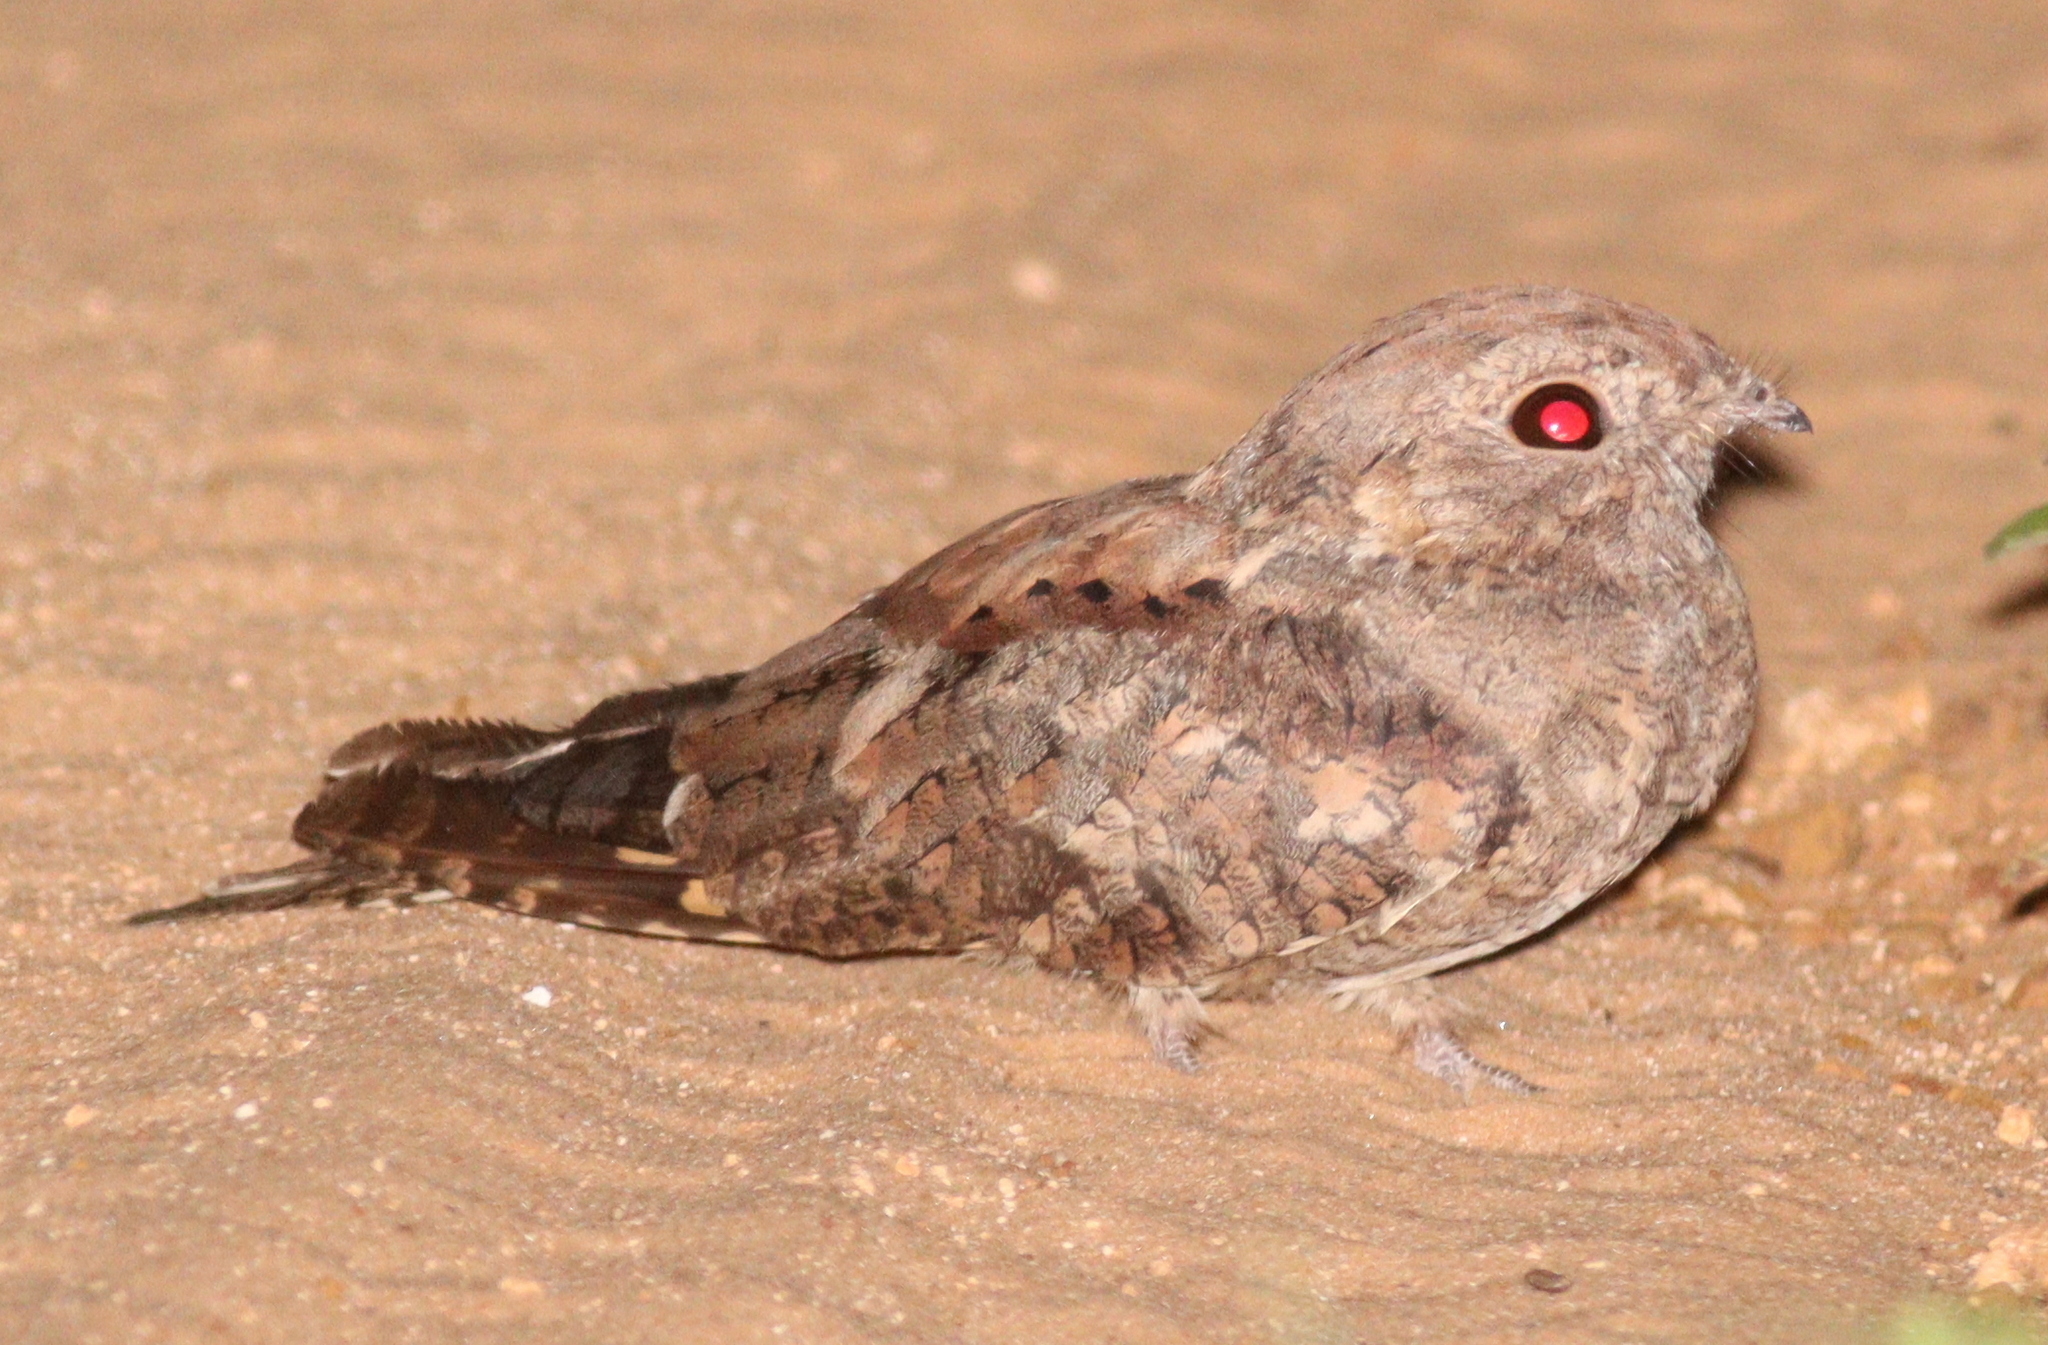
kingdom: Animalia
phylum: Chordata
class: Aves
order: Caprimulgiformes
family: Caprimulgidae
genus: Caprimulgus
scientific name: Caprimulgus inornatus
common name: Plain nightjar
